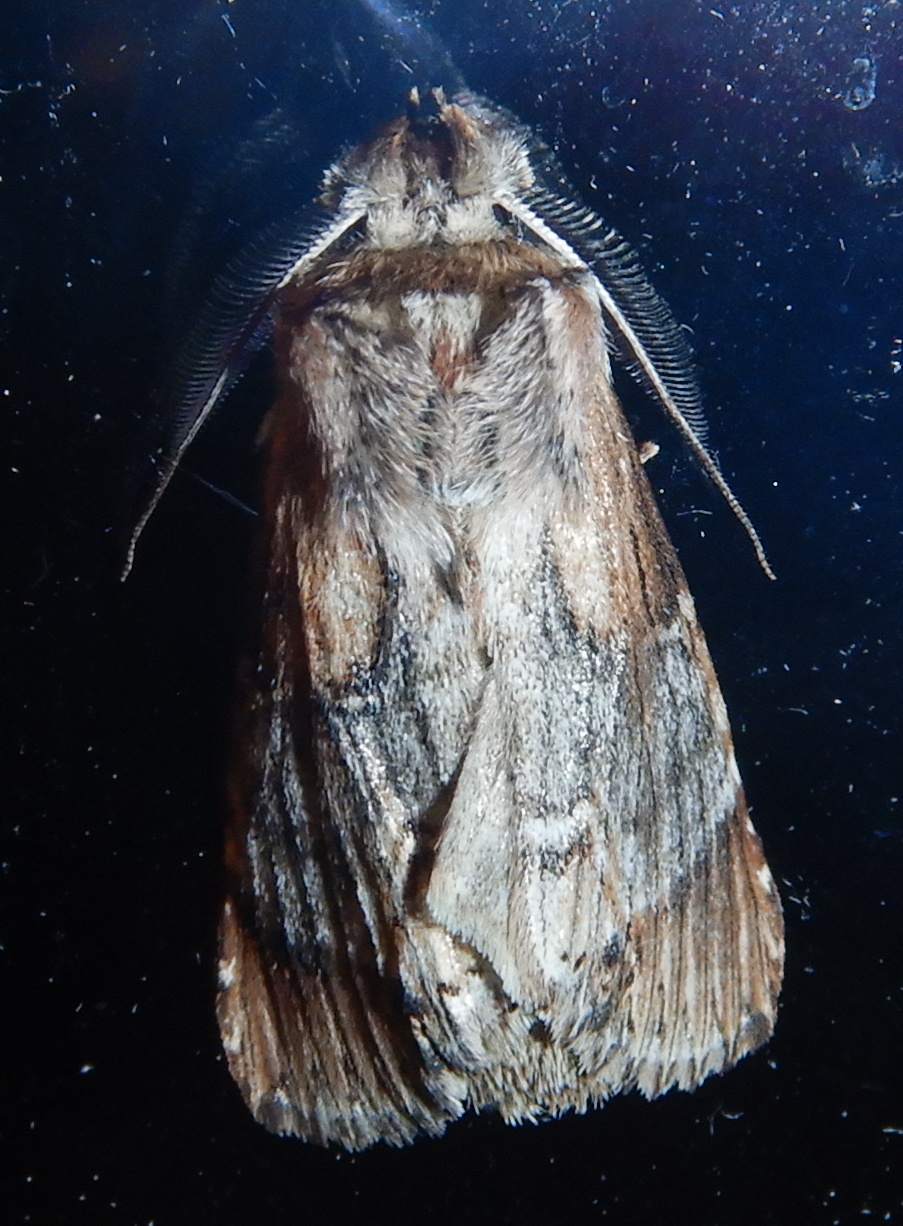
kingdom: Animalia
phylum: Arthropoda
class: Insecta
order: Lepidoptera
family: Notodontidae
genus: Dasylophia
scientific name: Dasylophia thyatiroides
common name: Gray-patched prominent
